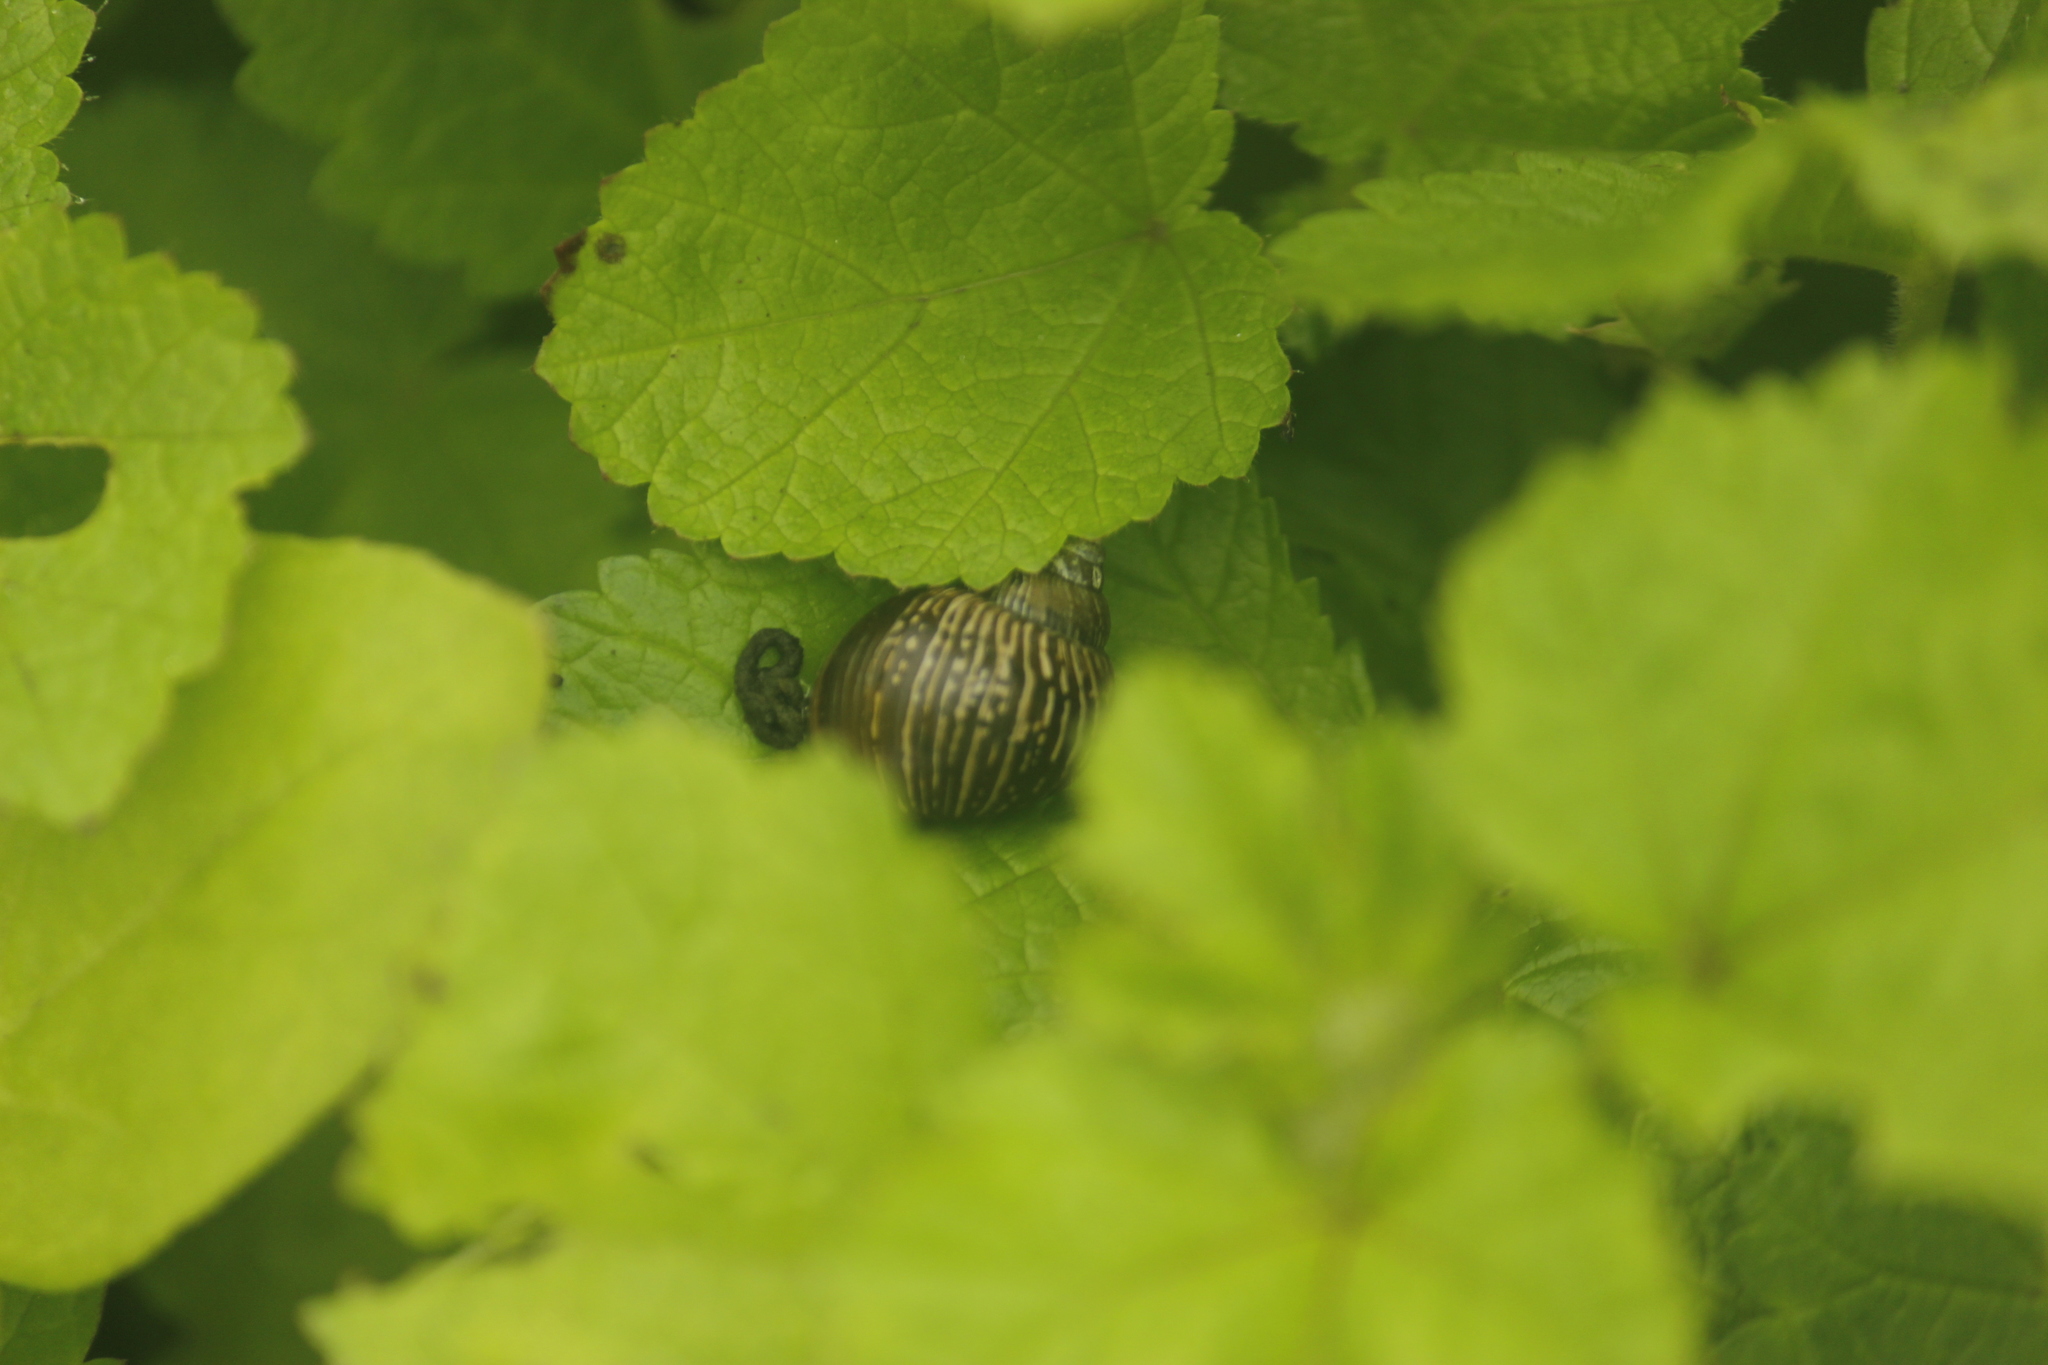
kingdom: Animalia
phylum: Mollusca
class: Gastropoda
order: Stylommatophora
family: Bulimulidae
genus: Bostryx
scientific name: Bostryx conspersus
